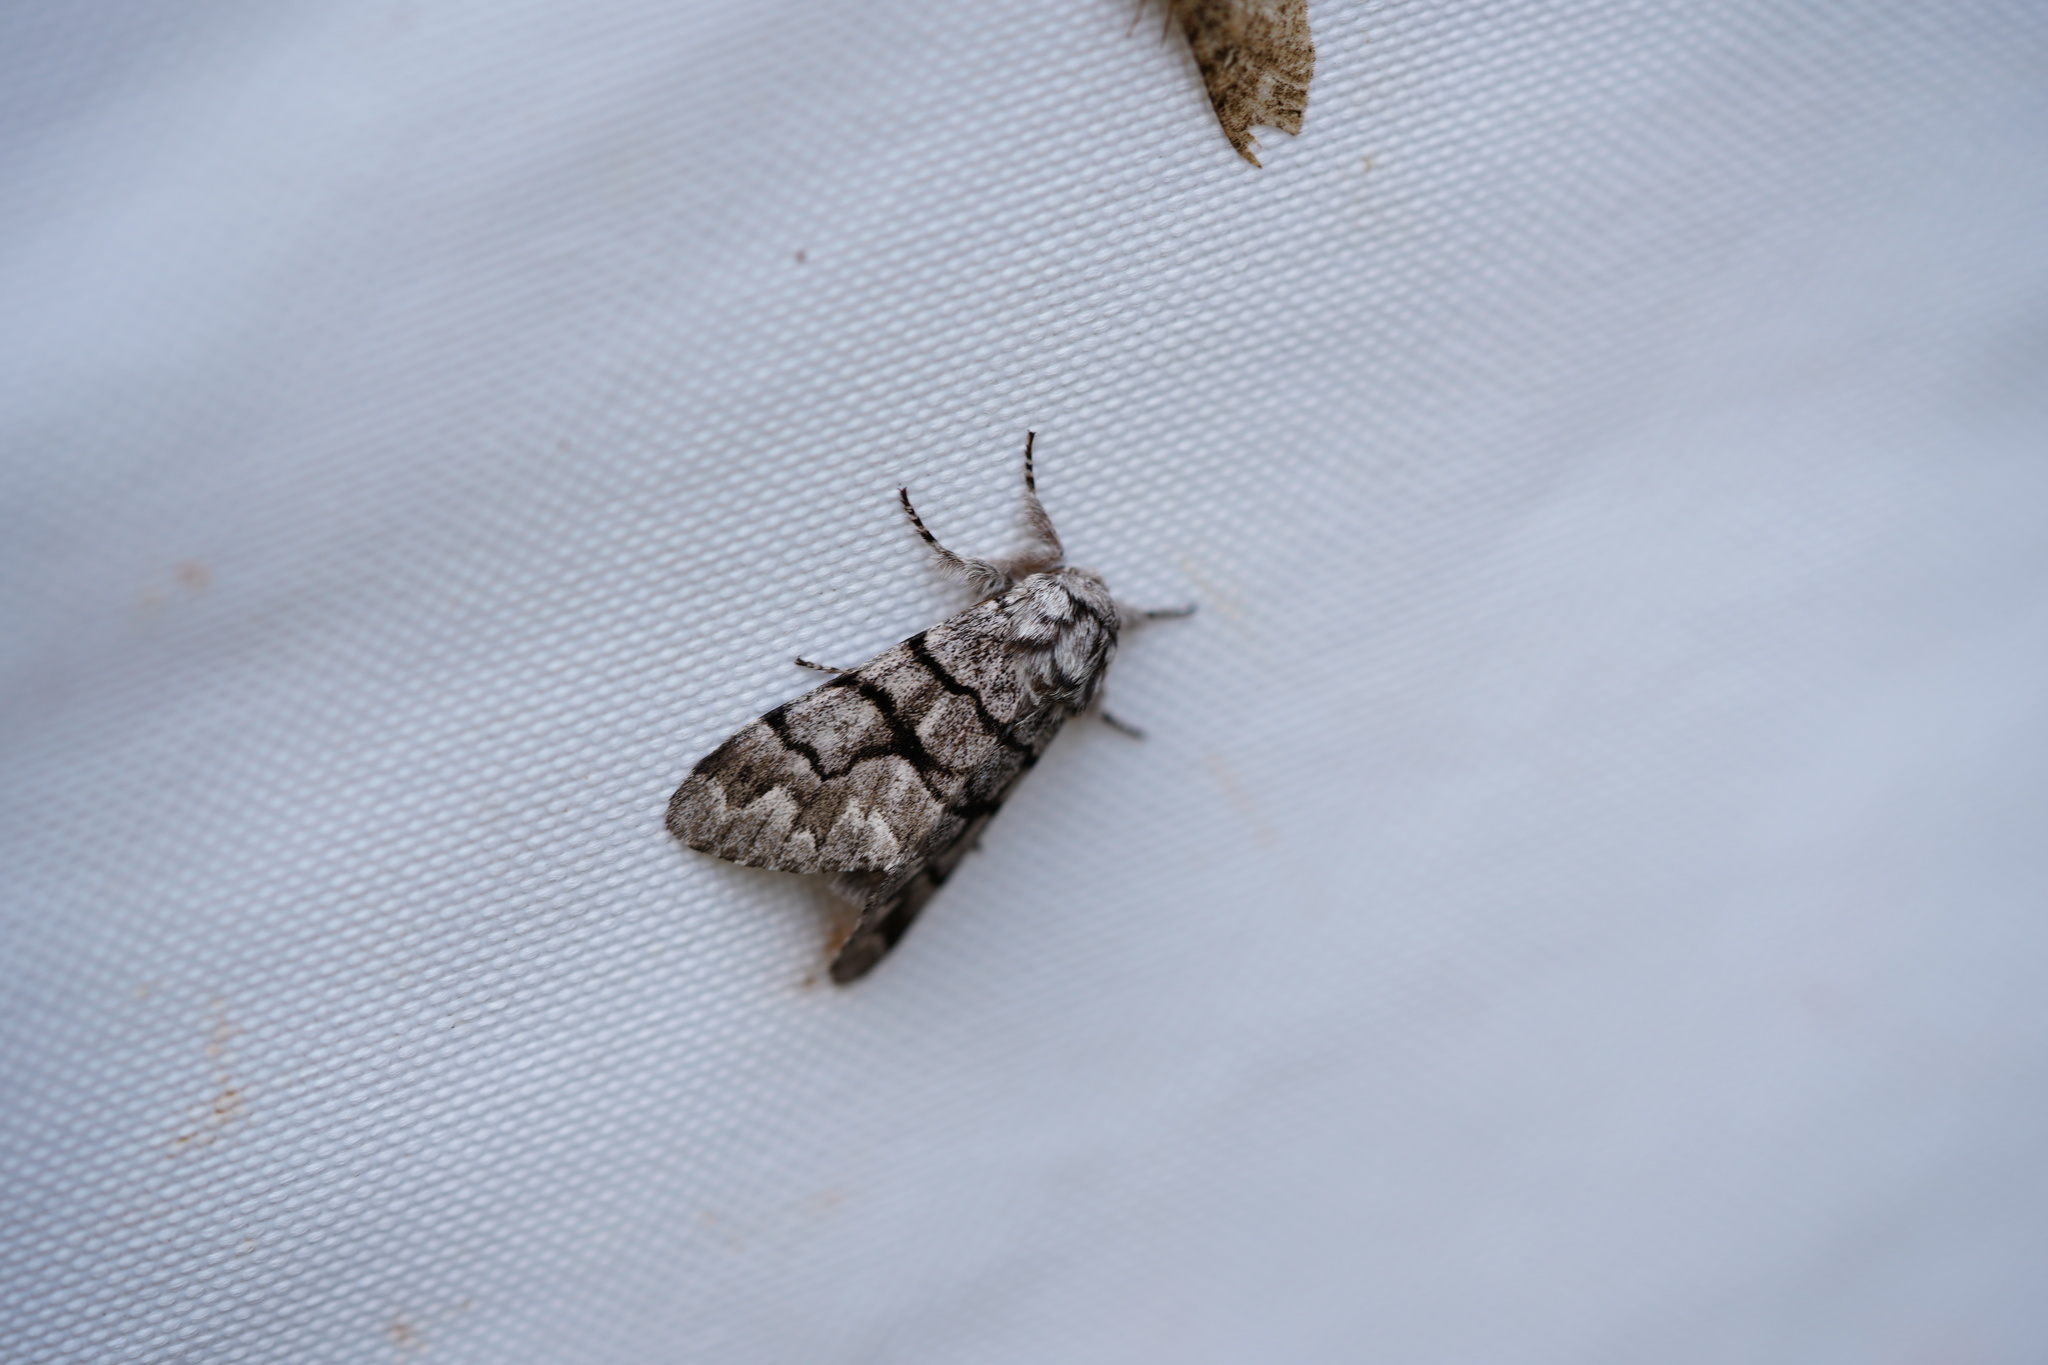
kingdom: Animalia
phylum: Arthropoda
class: Insecta
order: Lepidoptera
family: Noctuidae
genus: Panthea
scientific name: Panthea furcilla
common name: Eastern panthea moth
